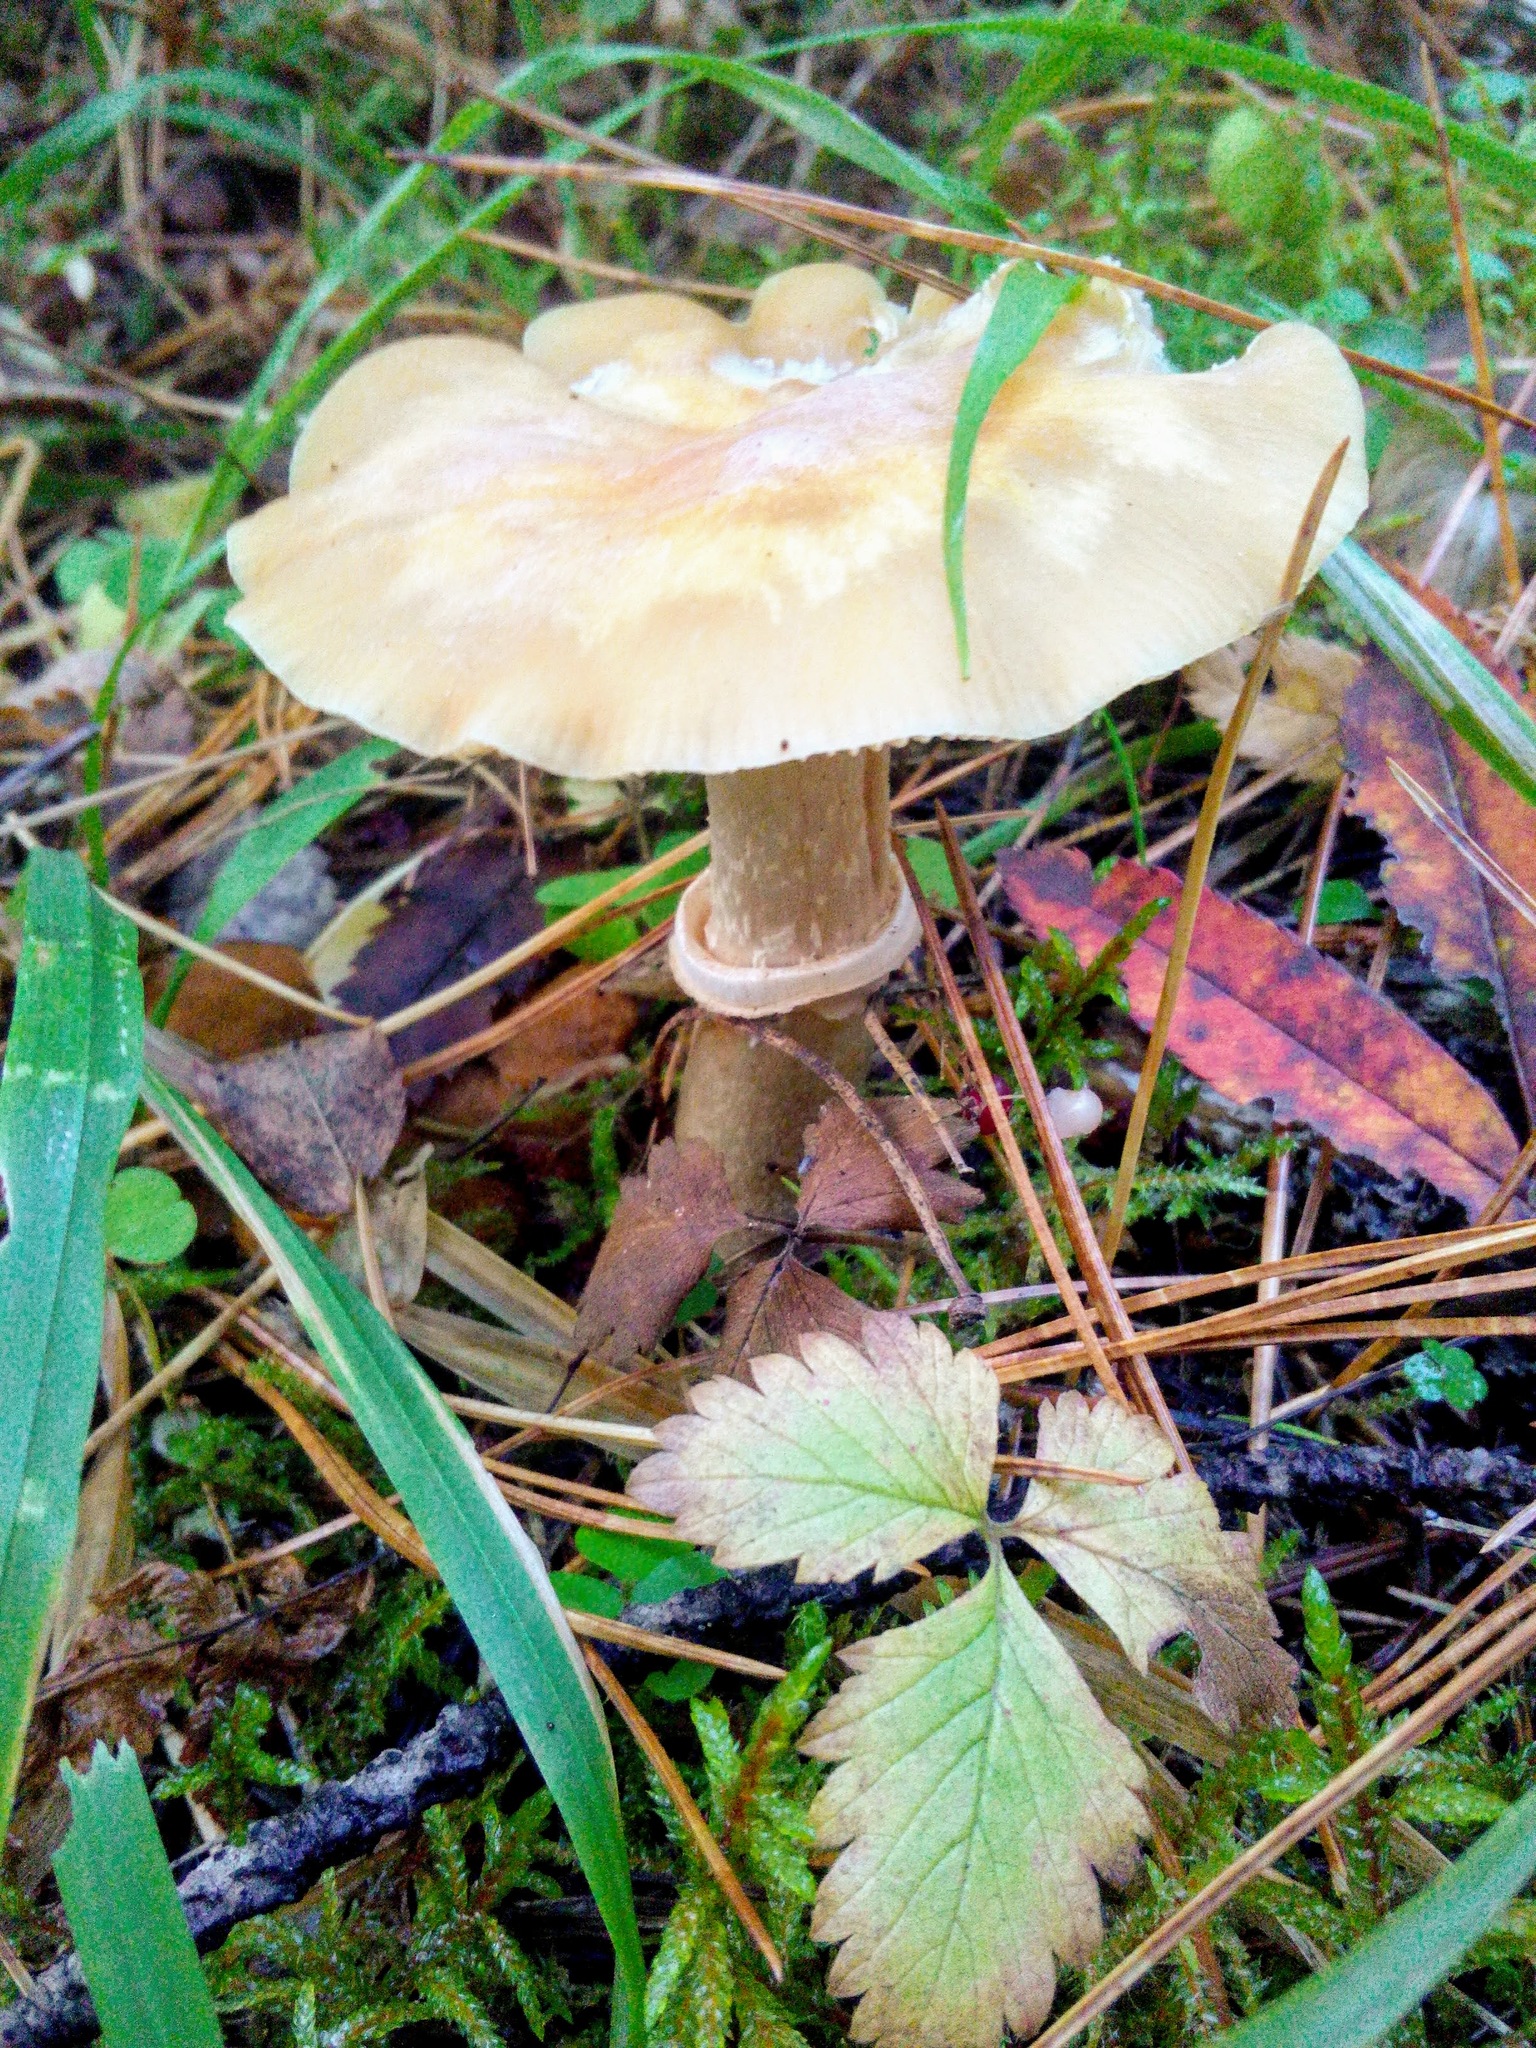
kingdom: Fungi
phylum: Basidiomycota
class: Agaricomycetes
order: Agaricales
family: Cortinariaceae
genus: Cortinarius
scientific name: Cortinarius caperatus
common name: The gypsy
